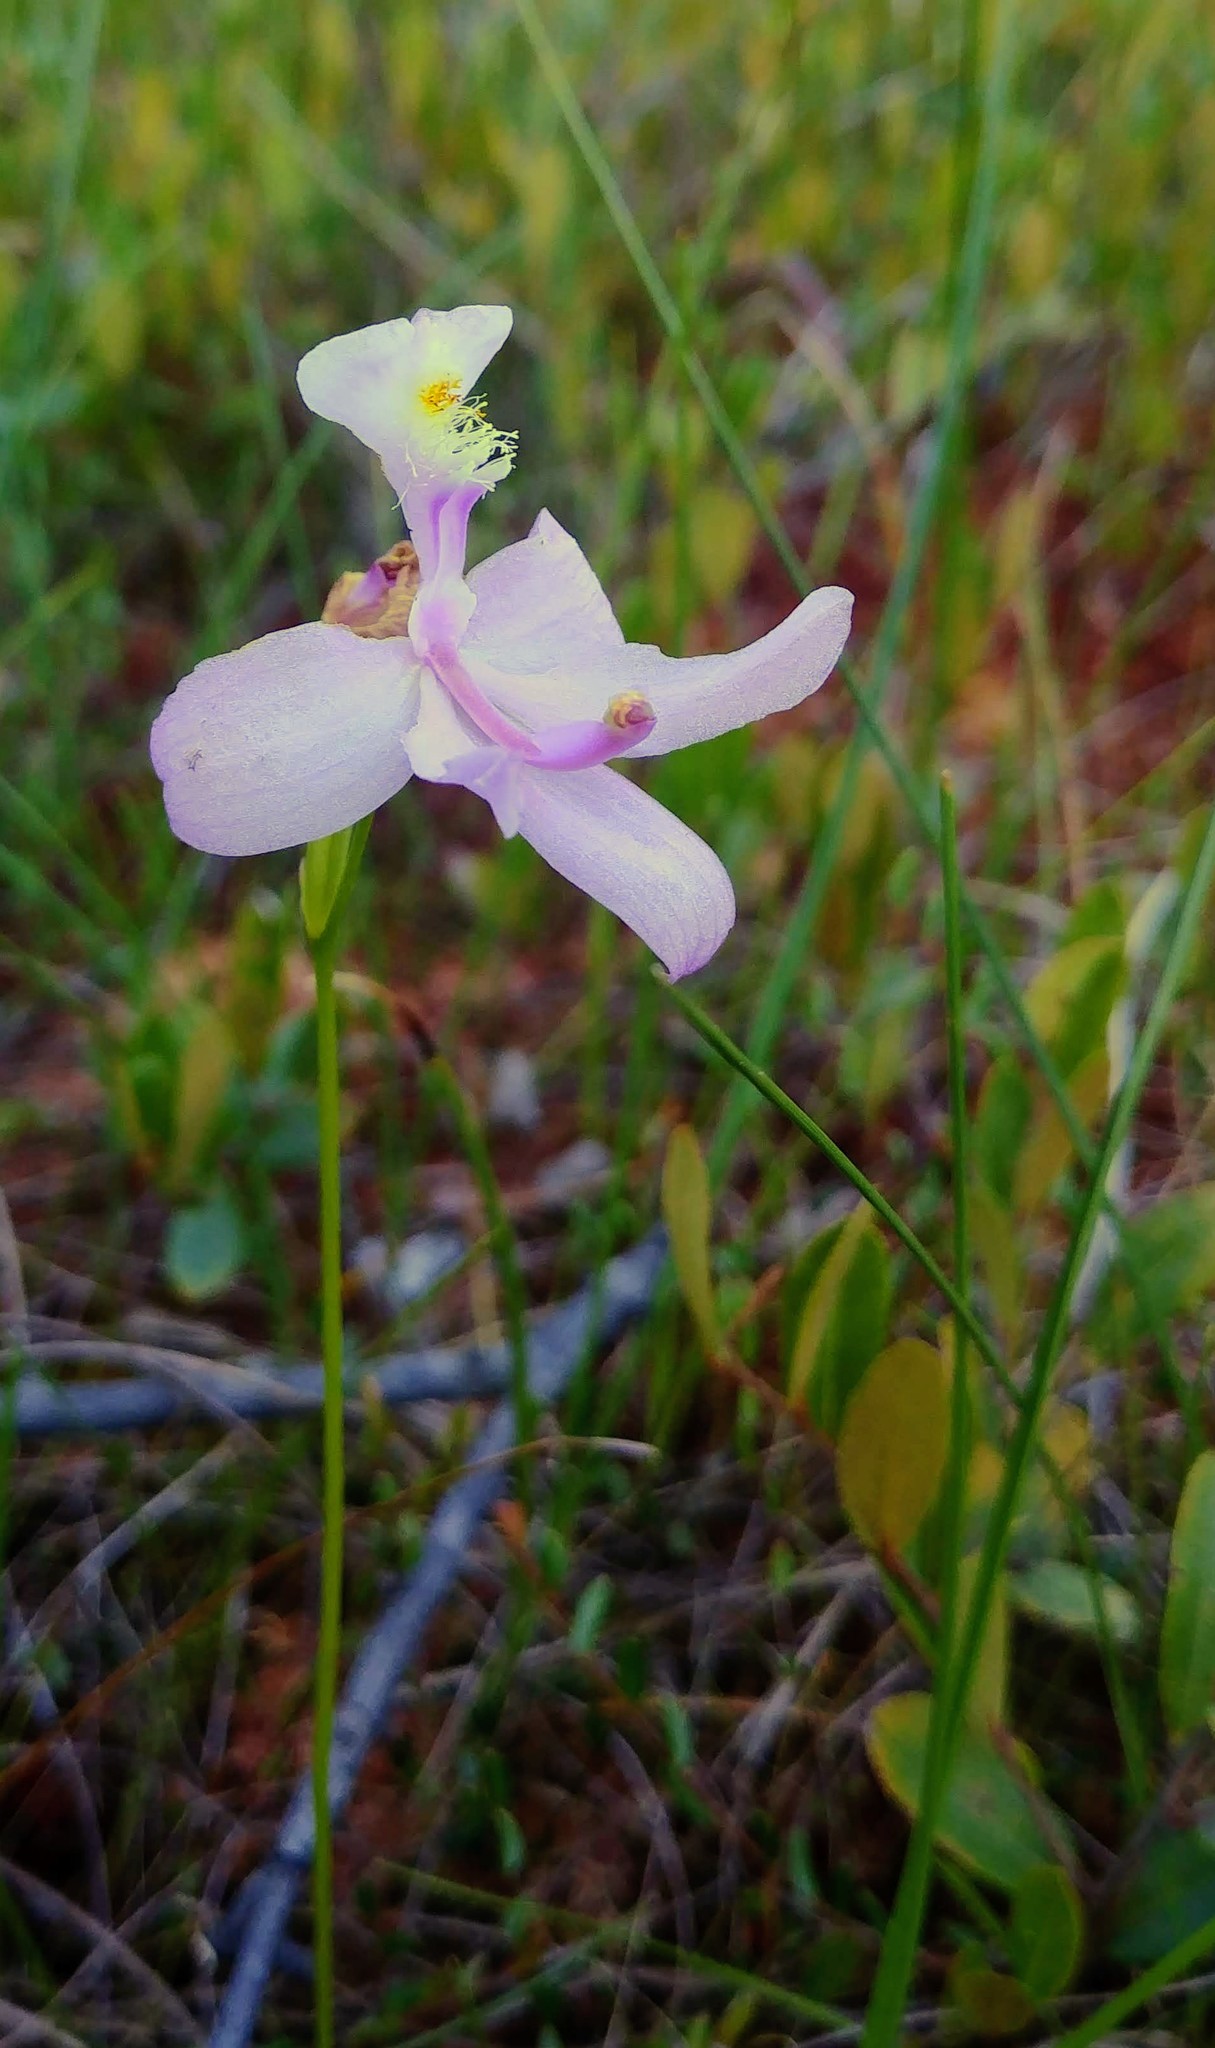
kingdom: Plantae
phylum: Tracheophyta
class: Liliopsida
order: Asparagales
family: Orchidaceae
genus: Calopogon
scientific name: Calopogon tuberosus
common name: Grass-pink
